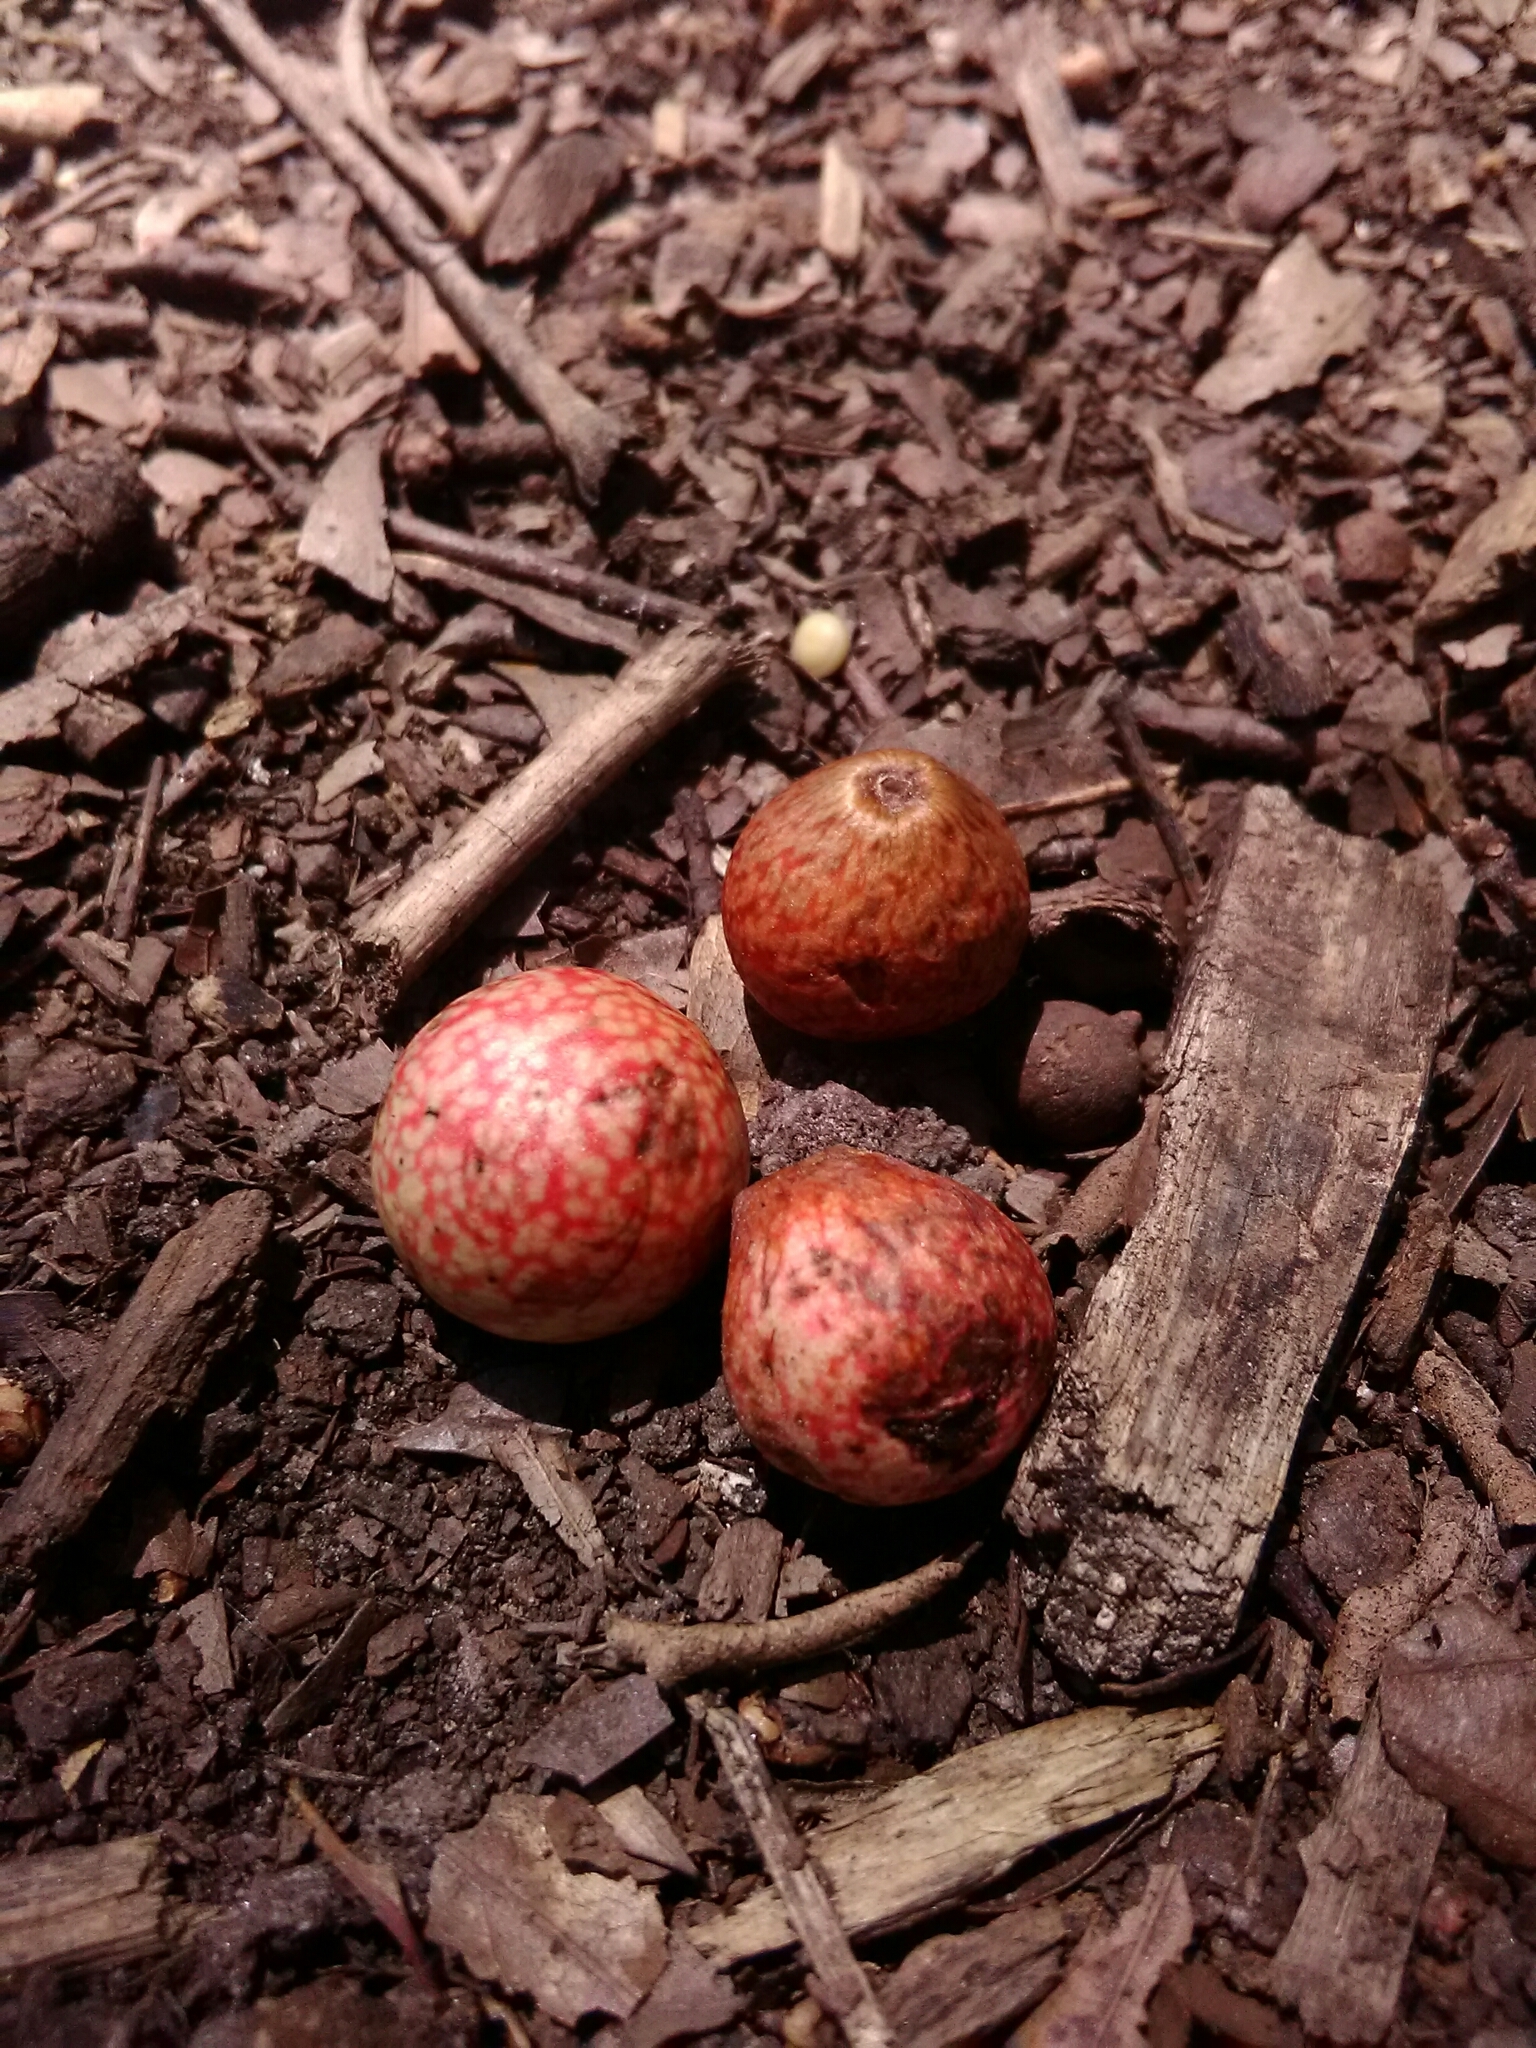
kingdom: Animalia
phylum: Arthropoda
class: Insecta
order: Hymenoptera
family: Cynipidae
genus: Amphibolips
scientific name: Amphibolips
